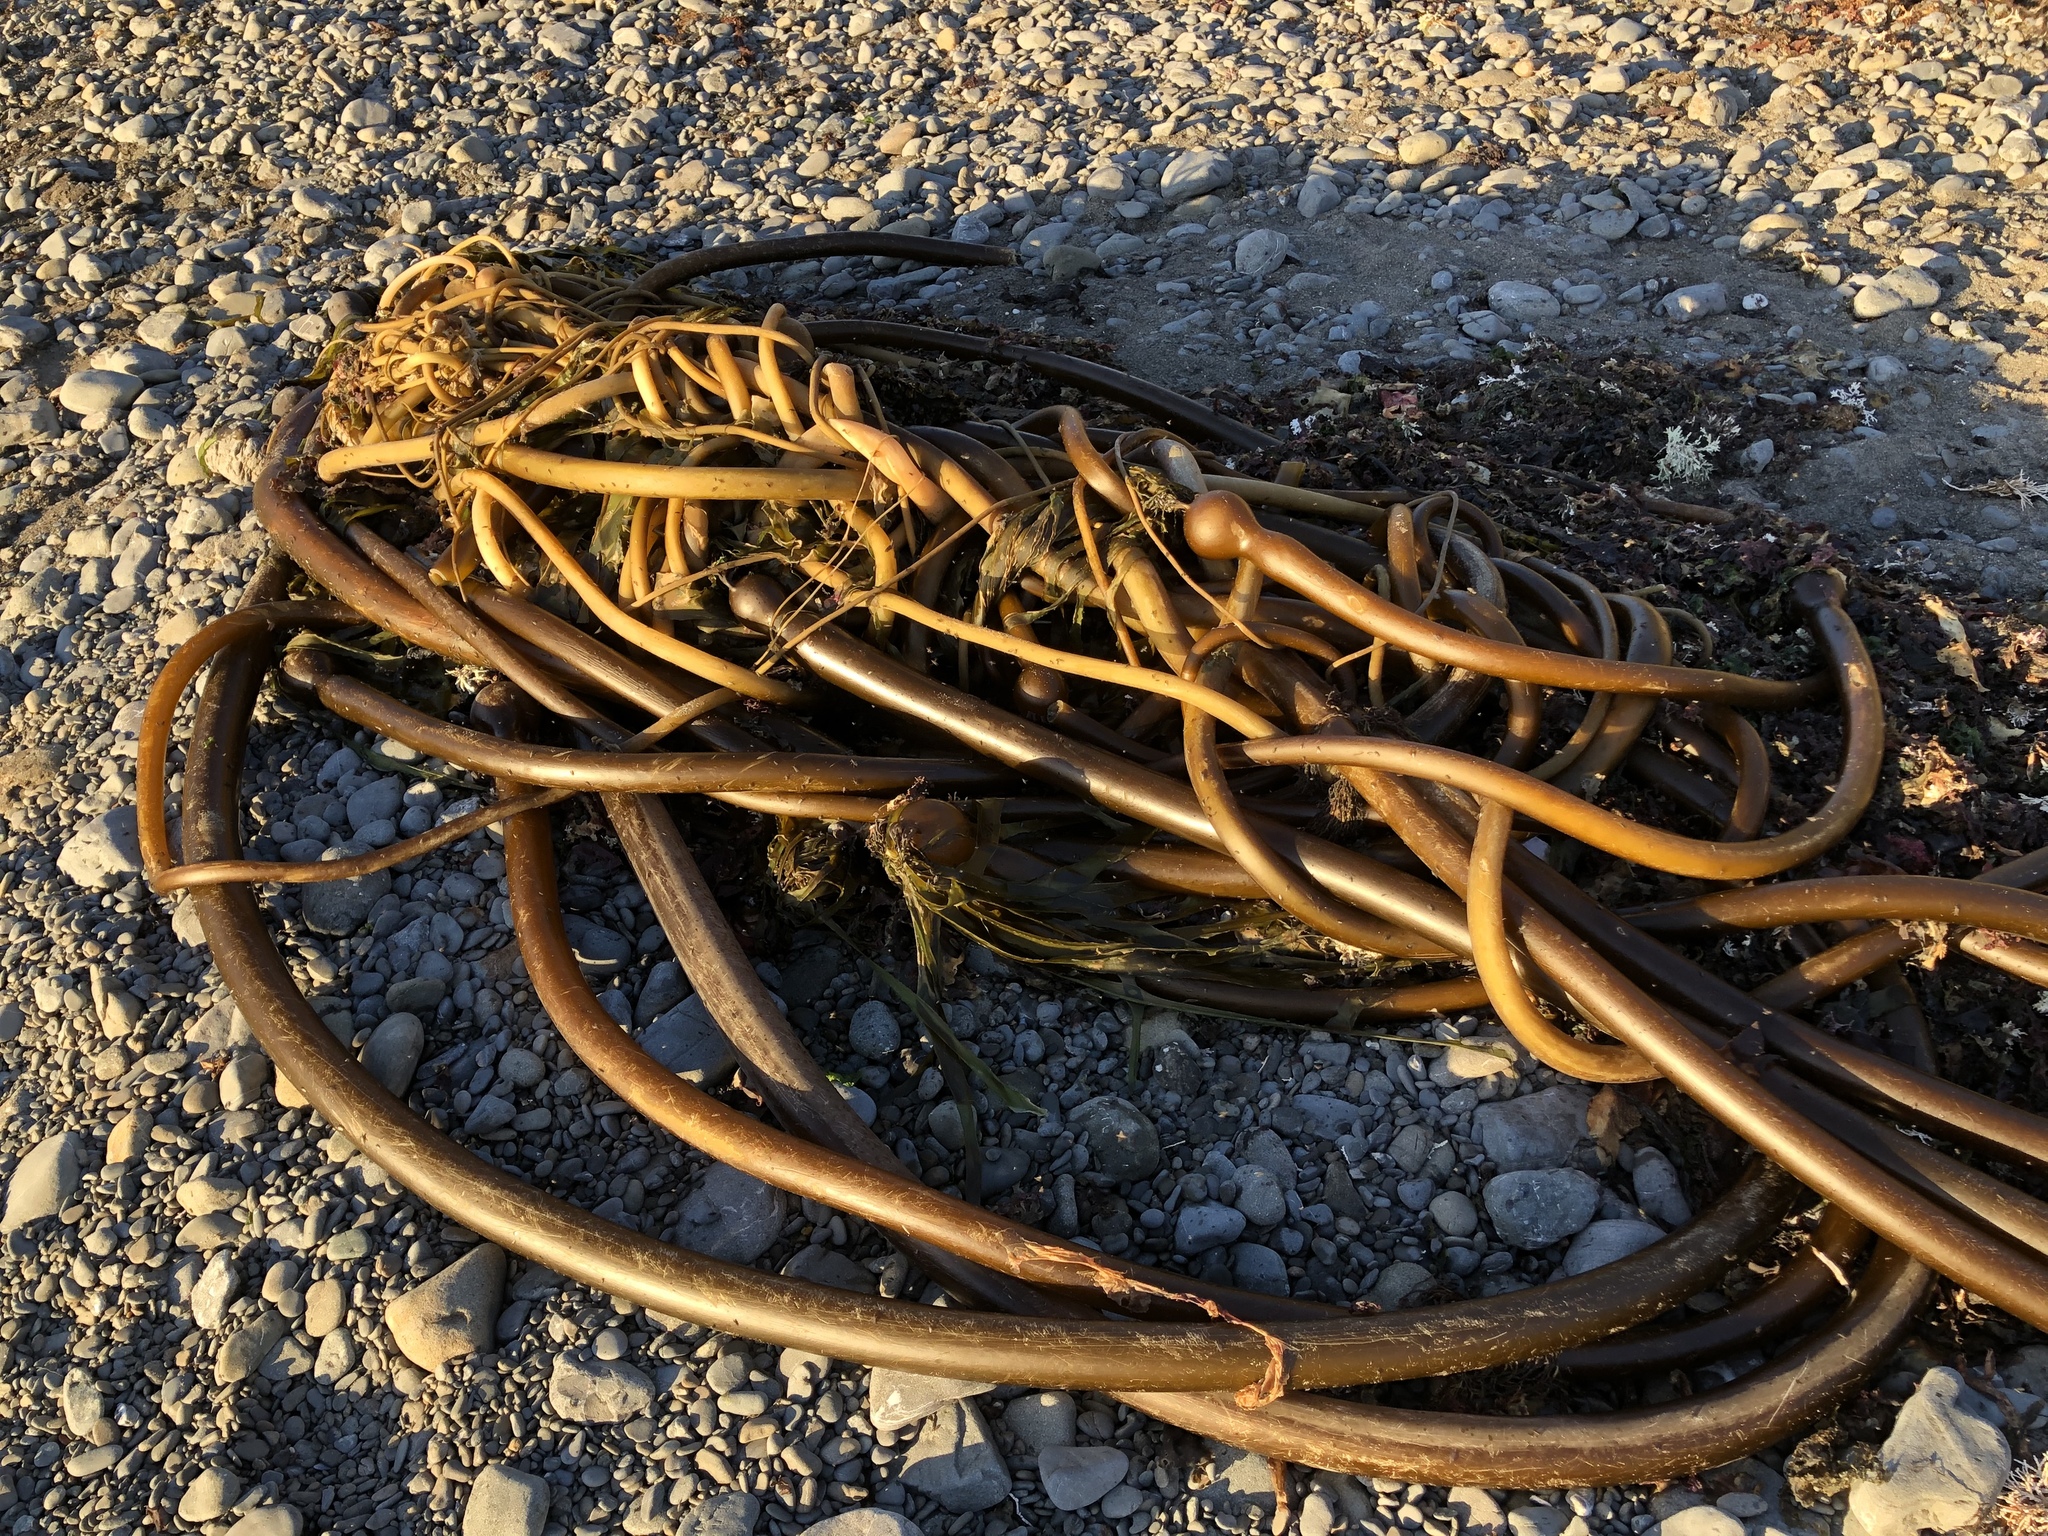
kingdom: Chromista
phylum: Ochrophyta
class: Phaeophyceae
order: Laminariales
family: Laminariaceae
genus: Nereocystis
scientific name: Nereocystis luetkeana
